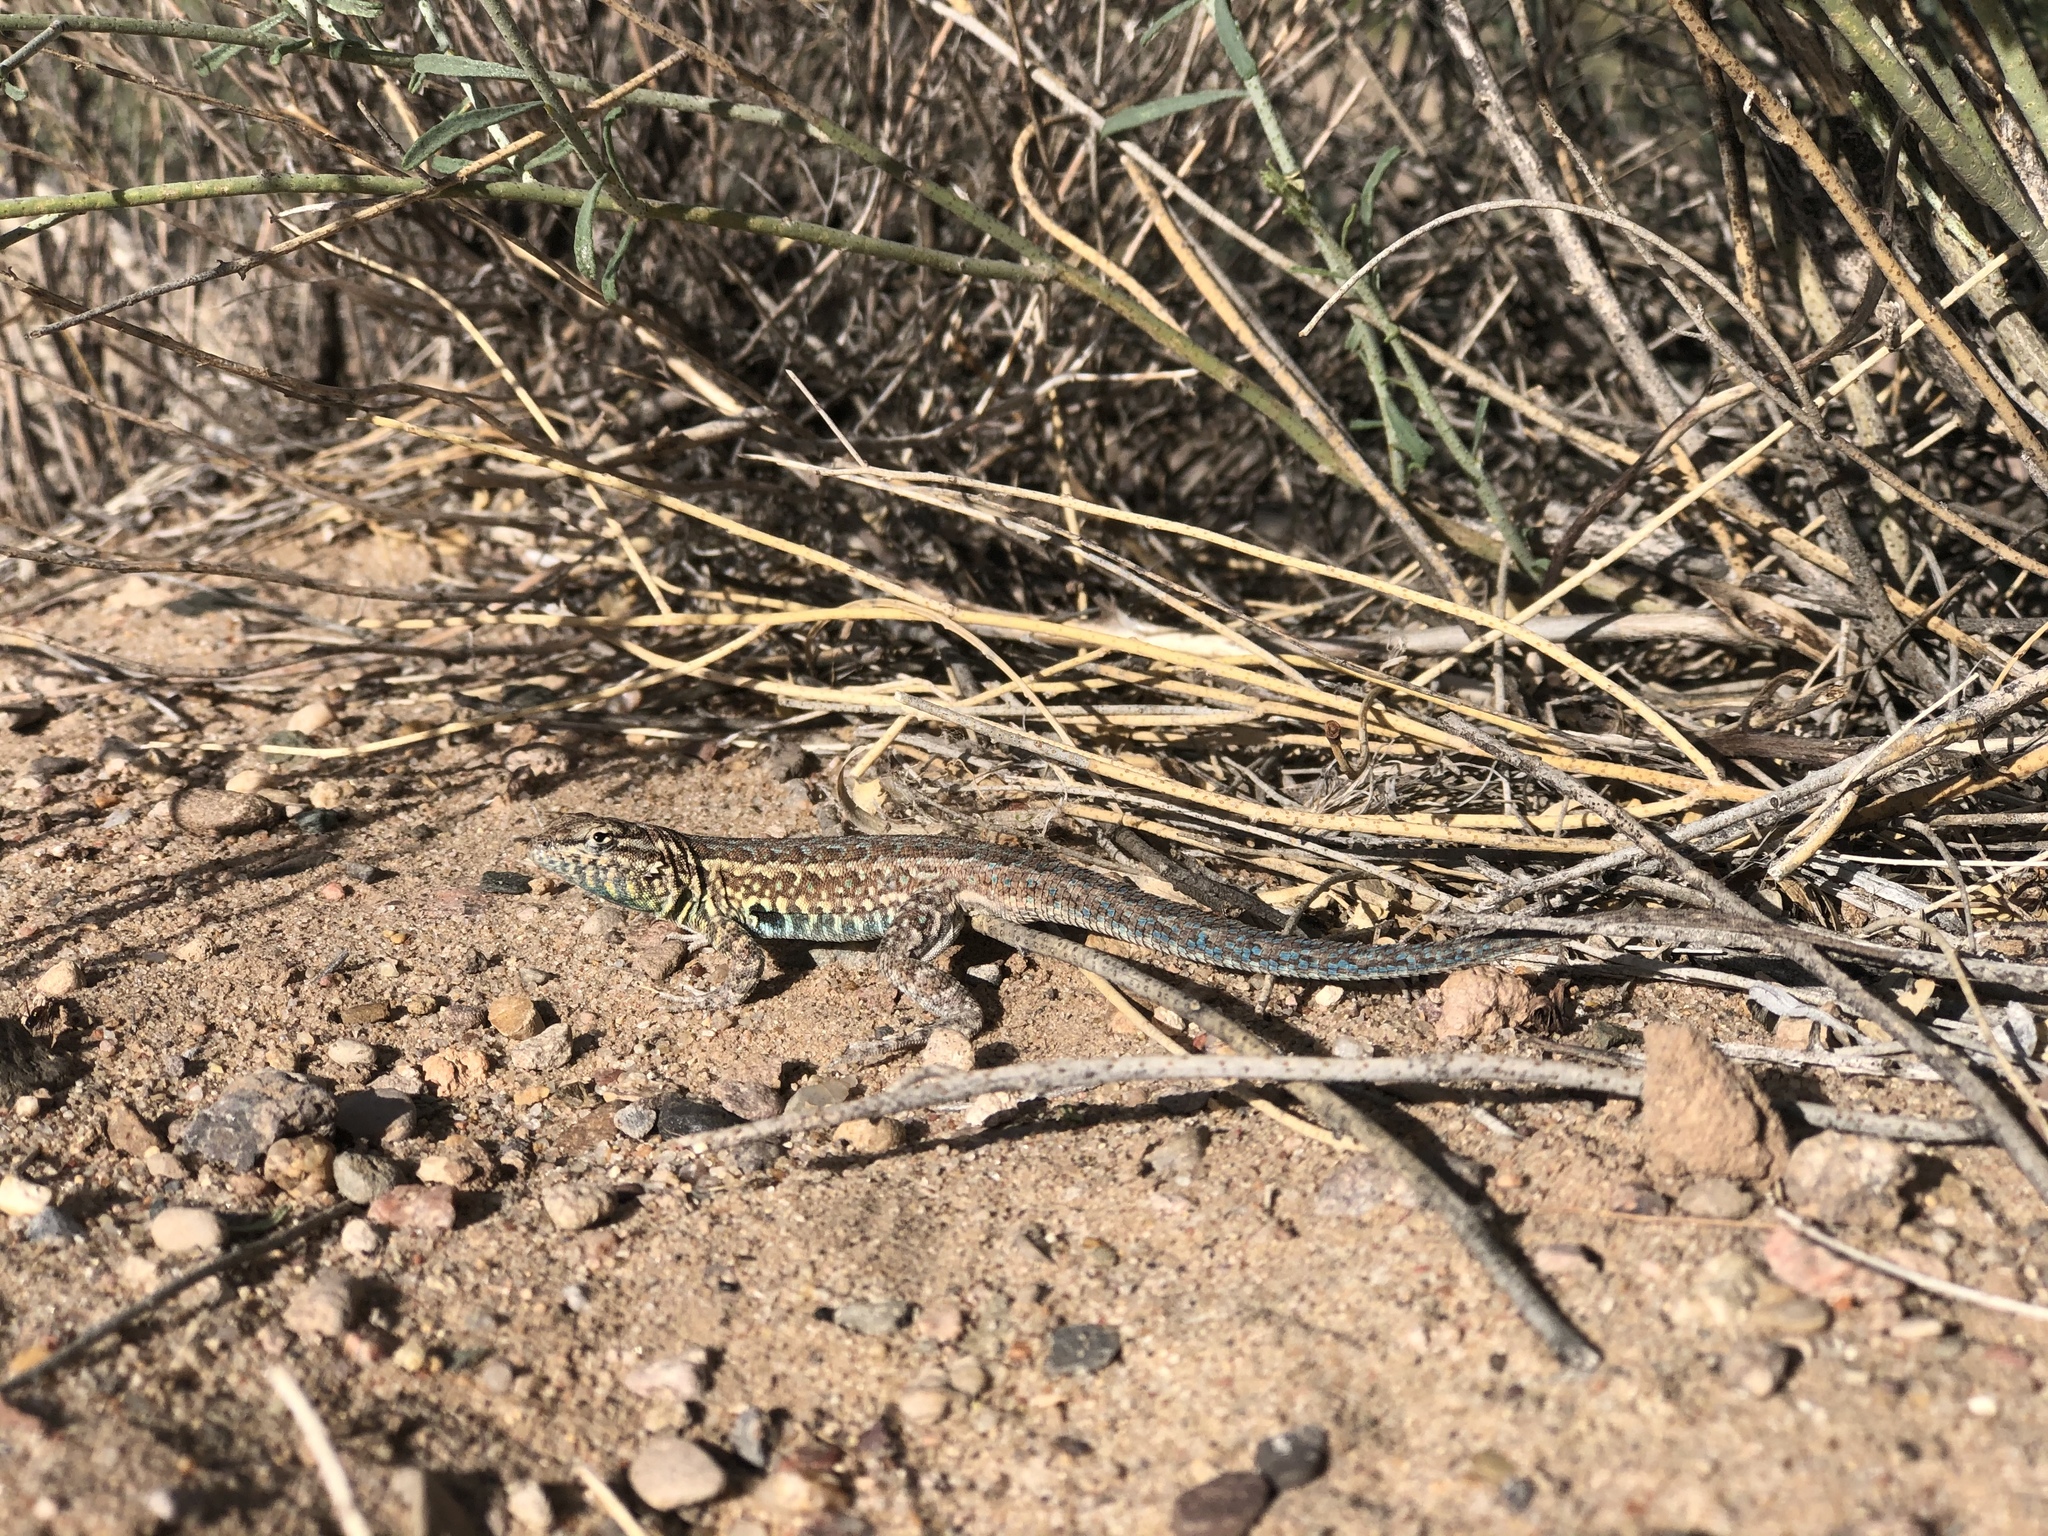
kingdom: Animalia
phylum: Chordata
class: Squamata
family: Phrynosomatidae
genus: Uta
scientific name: Uta stansburiana
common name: Side-blotched lizard
